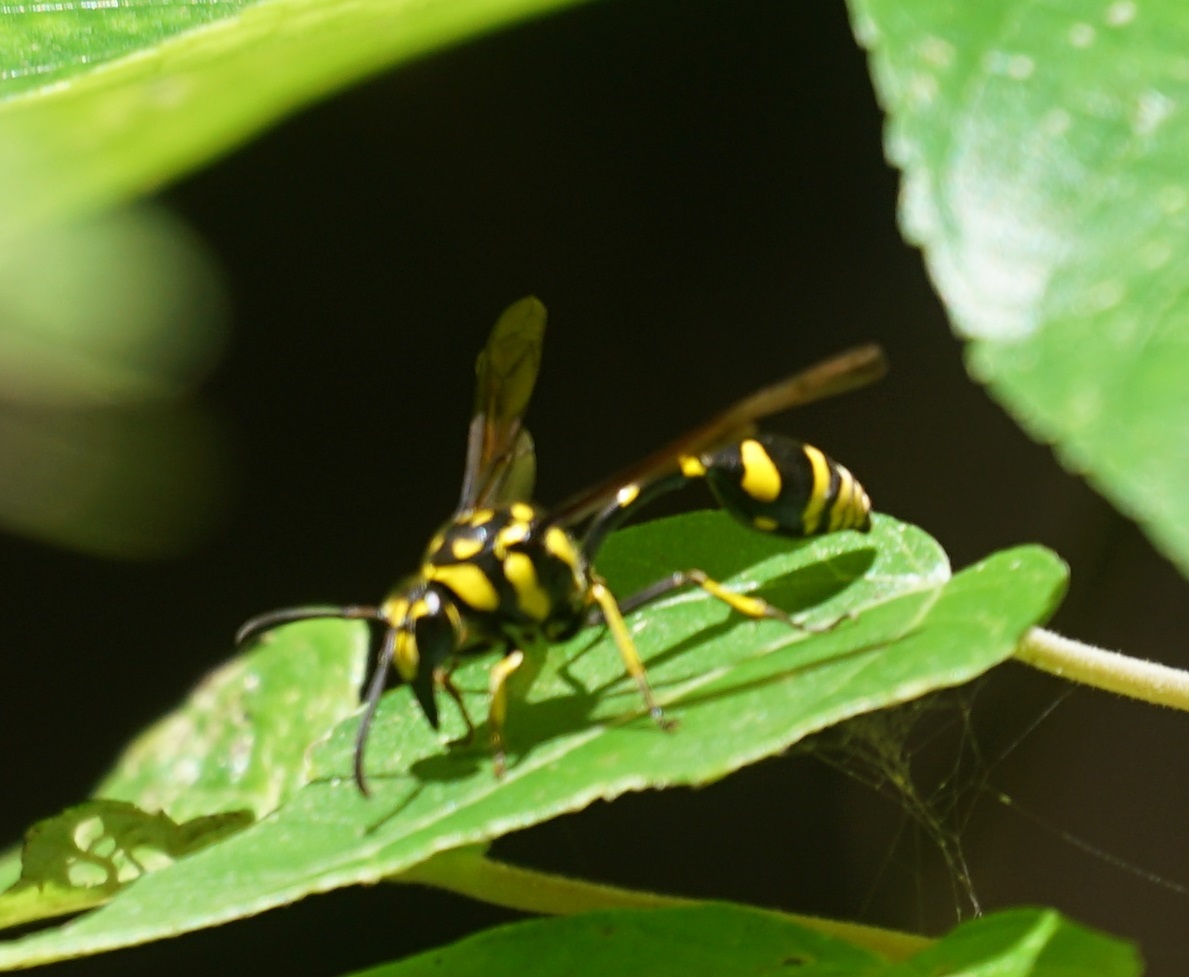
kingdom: Animalia
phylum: Arthropoda
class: Insecta
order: Hymenoptera
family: Eumenidae
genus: Phimenes
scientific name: Phimenes arcuatus
